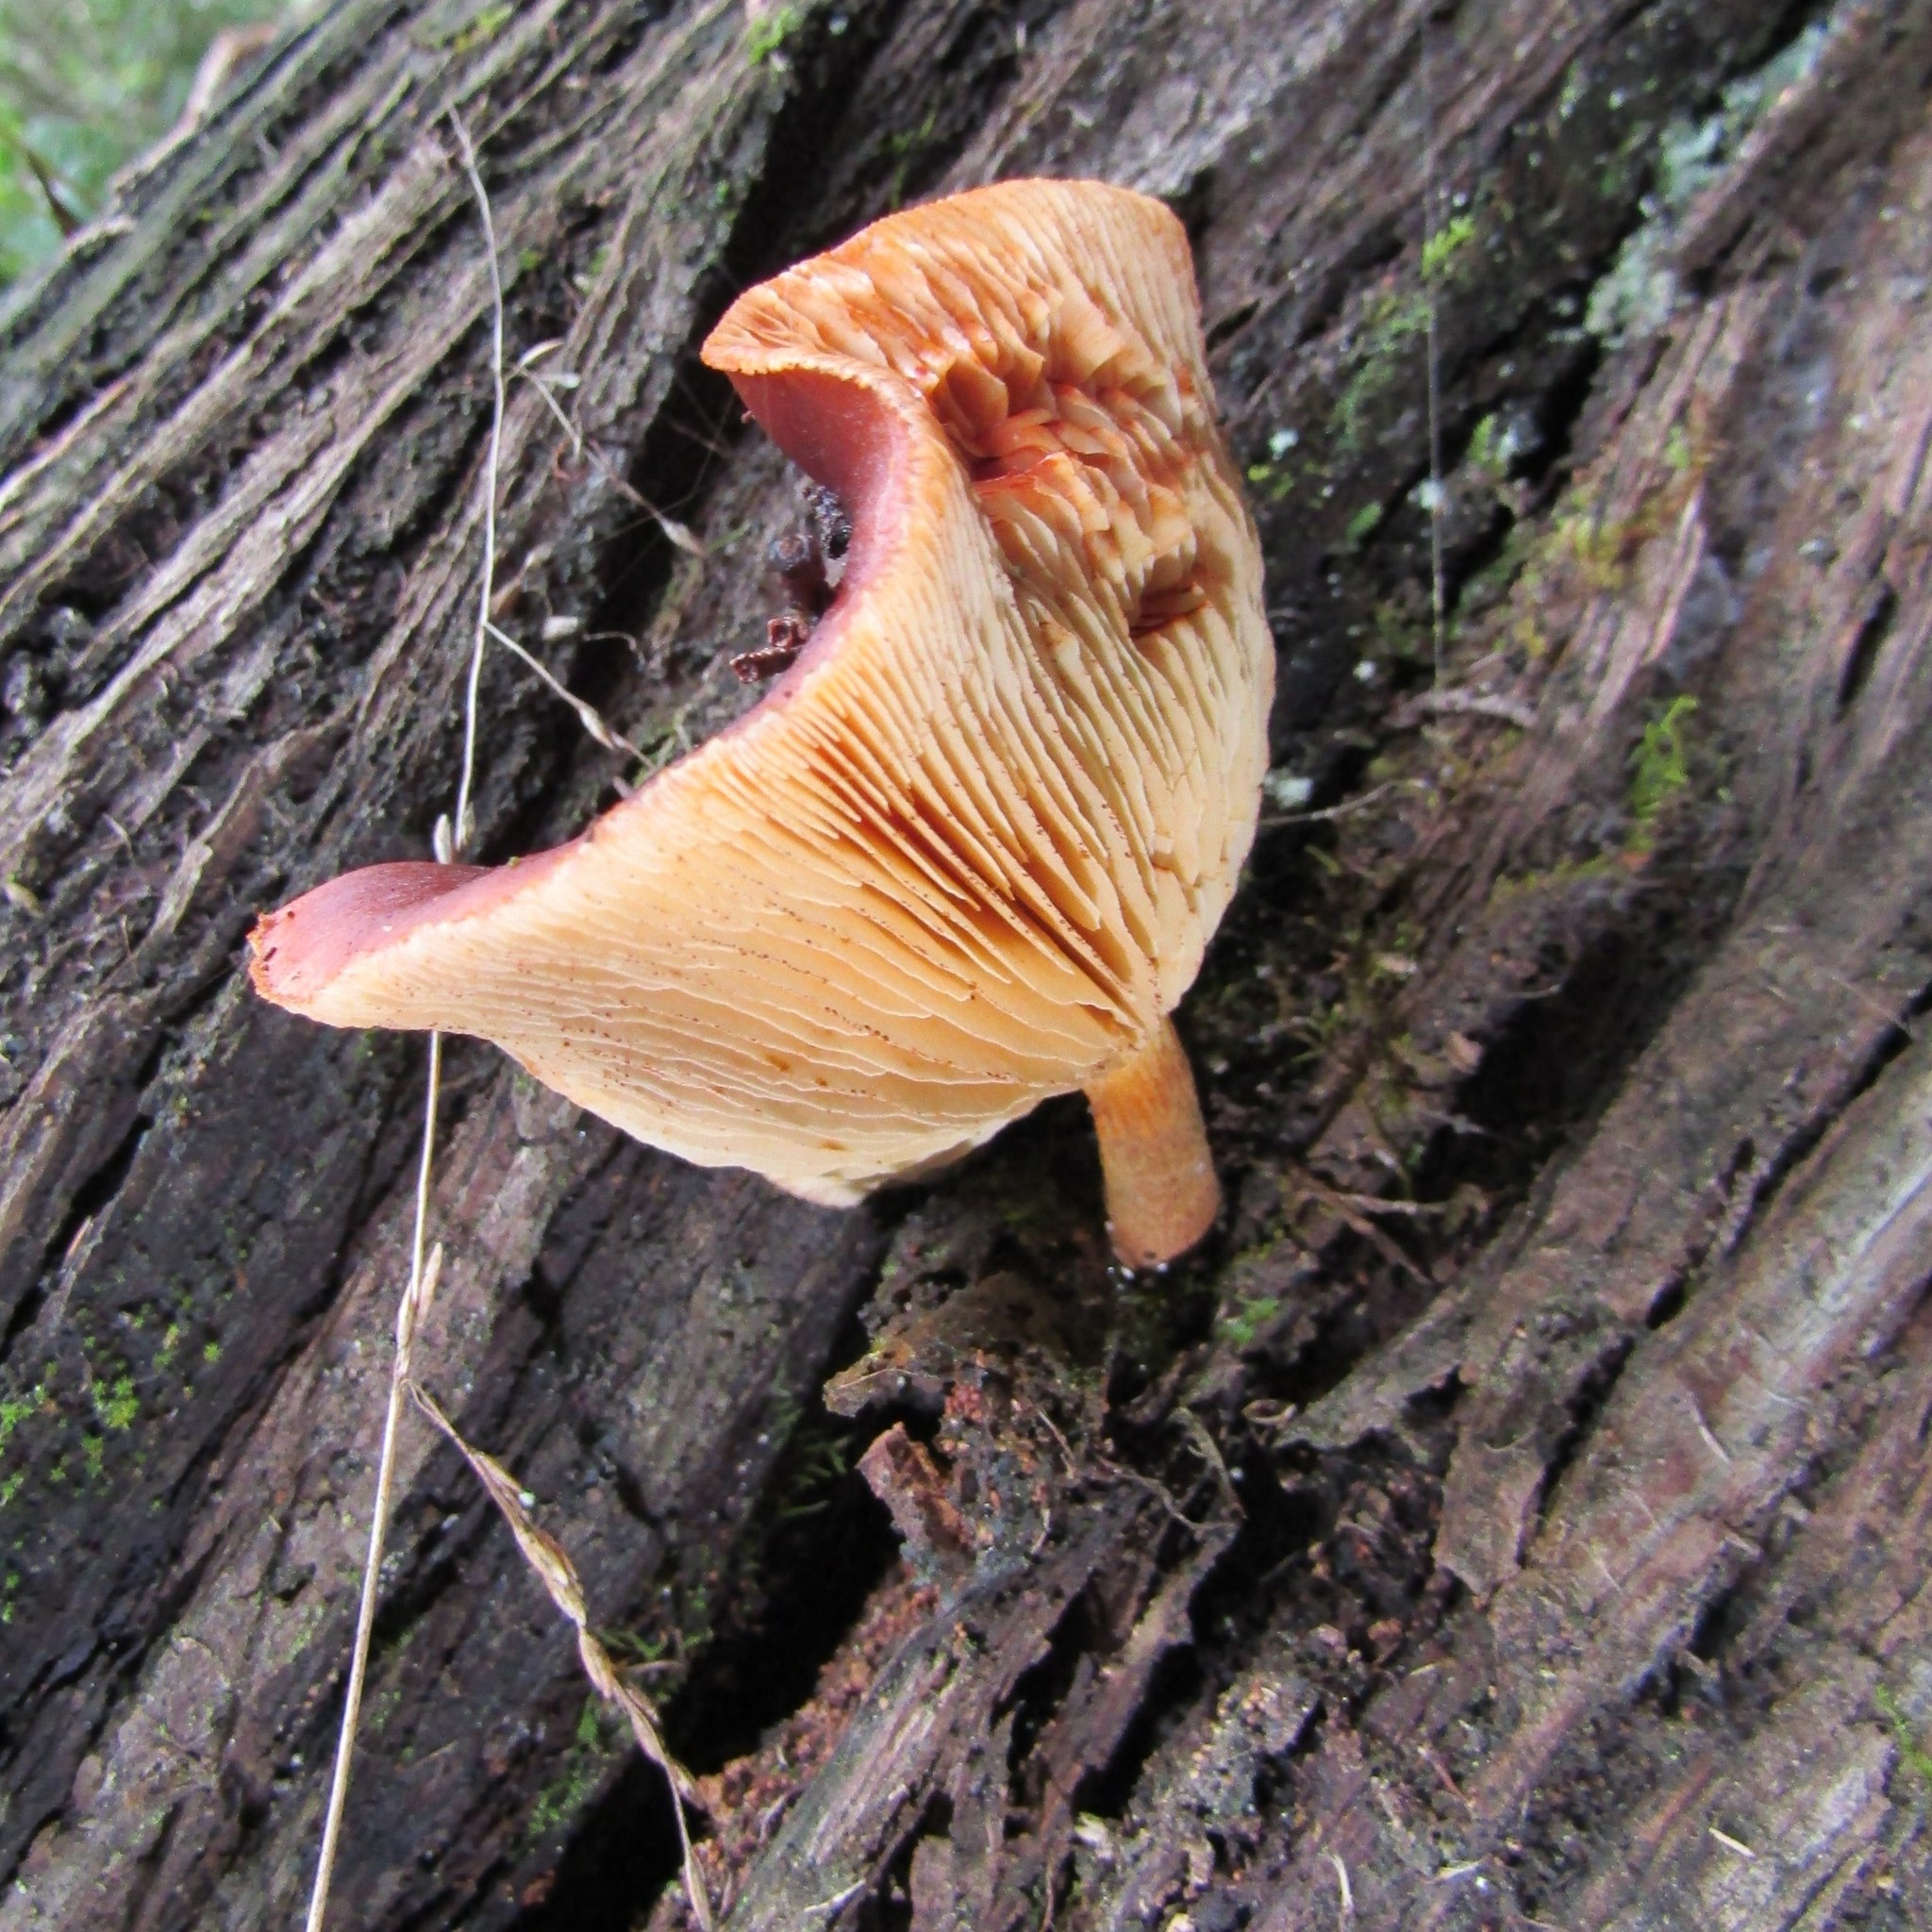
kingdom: Fungi
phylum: Basidiomycota
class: Agaricomycetes
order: Agaricales
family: Hymenogastraceae
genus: Gymnopilus
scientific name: Gymnopilus purpuratus
